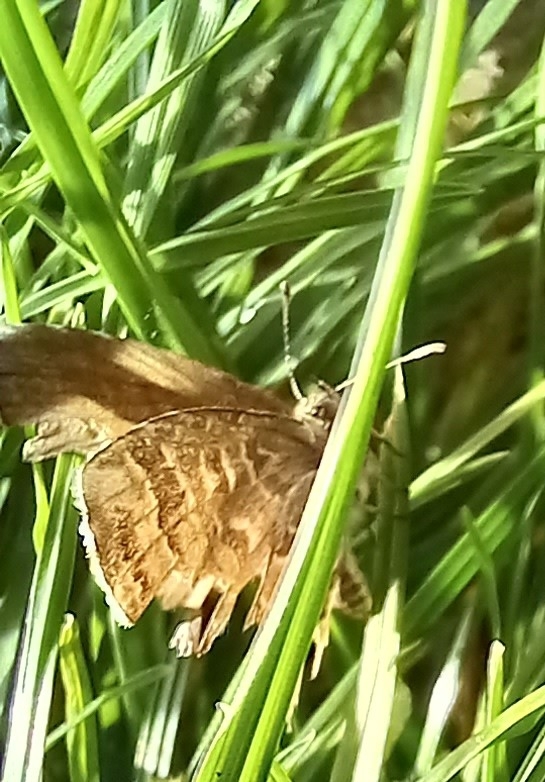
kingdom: Animalia
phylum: Arthropoda
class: Insecta
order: Lepidoptera
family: Lycaenidae
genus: Cacyreus
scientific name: Cacyreus marshalli
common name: Geranium bronze
